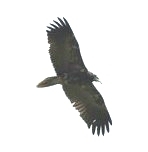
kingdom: Animalia
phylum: Chordata
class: Aves
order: Accipitriformes
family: Accipitridae
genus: Neophron
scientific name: Neophron percnopterus
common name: Egyptian vulture
